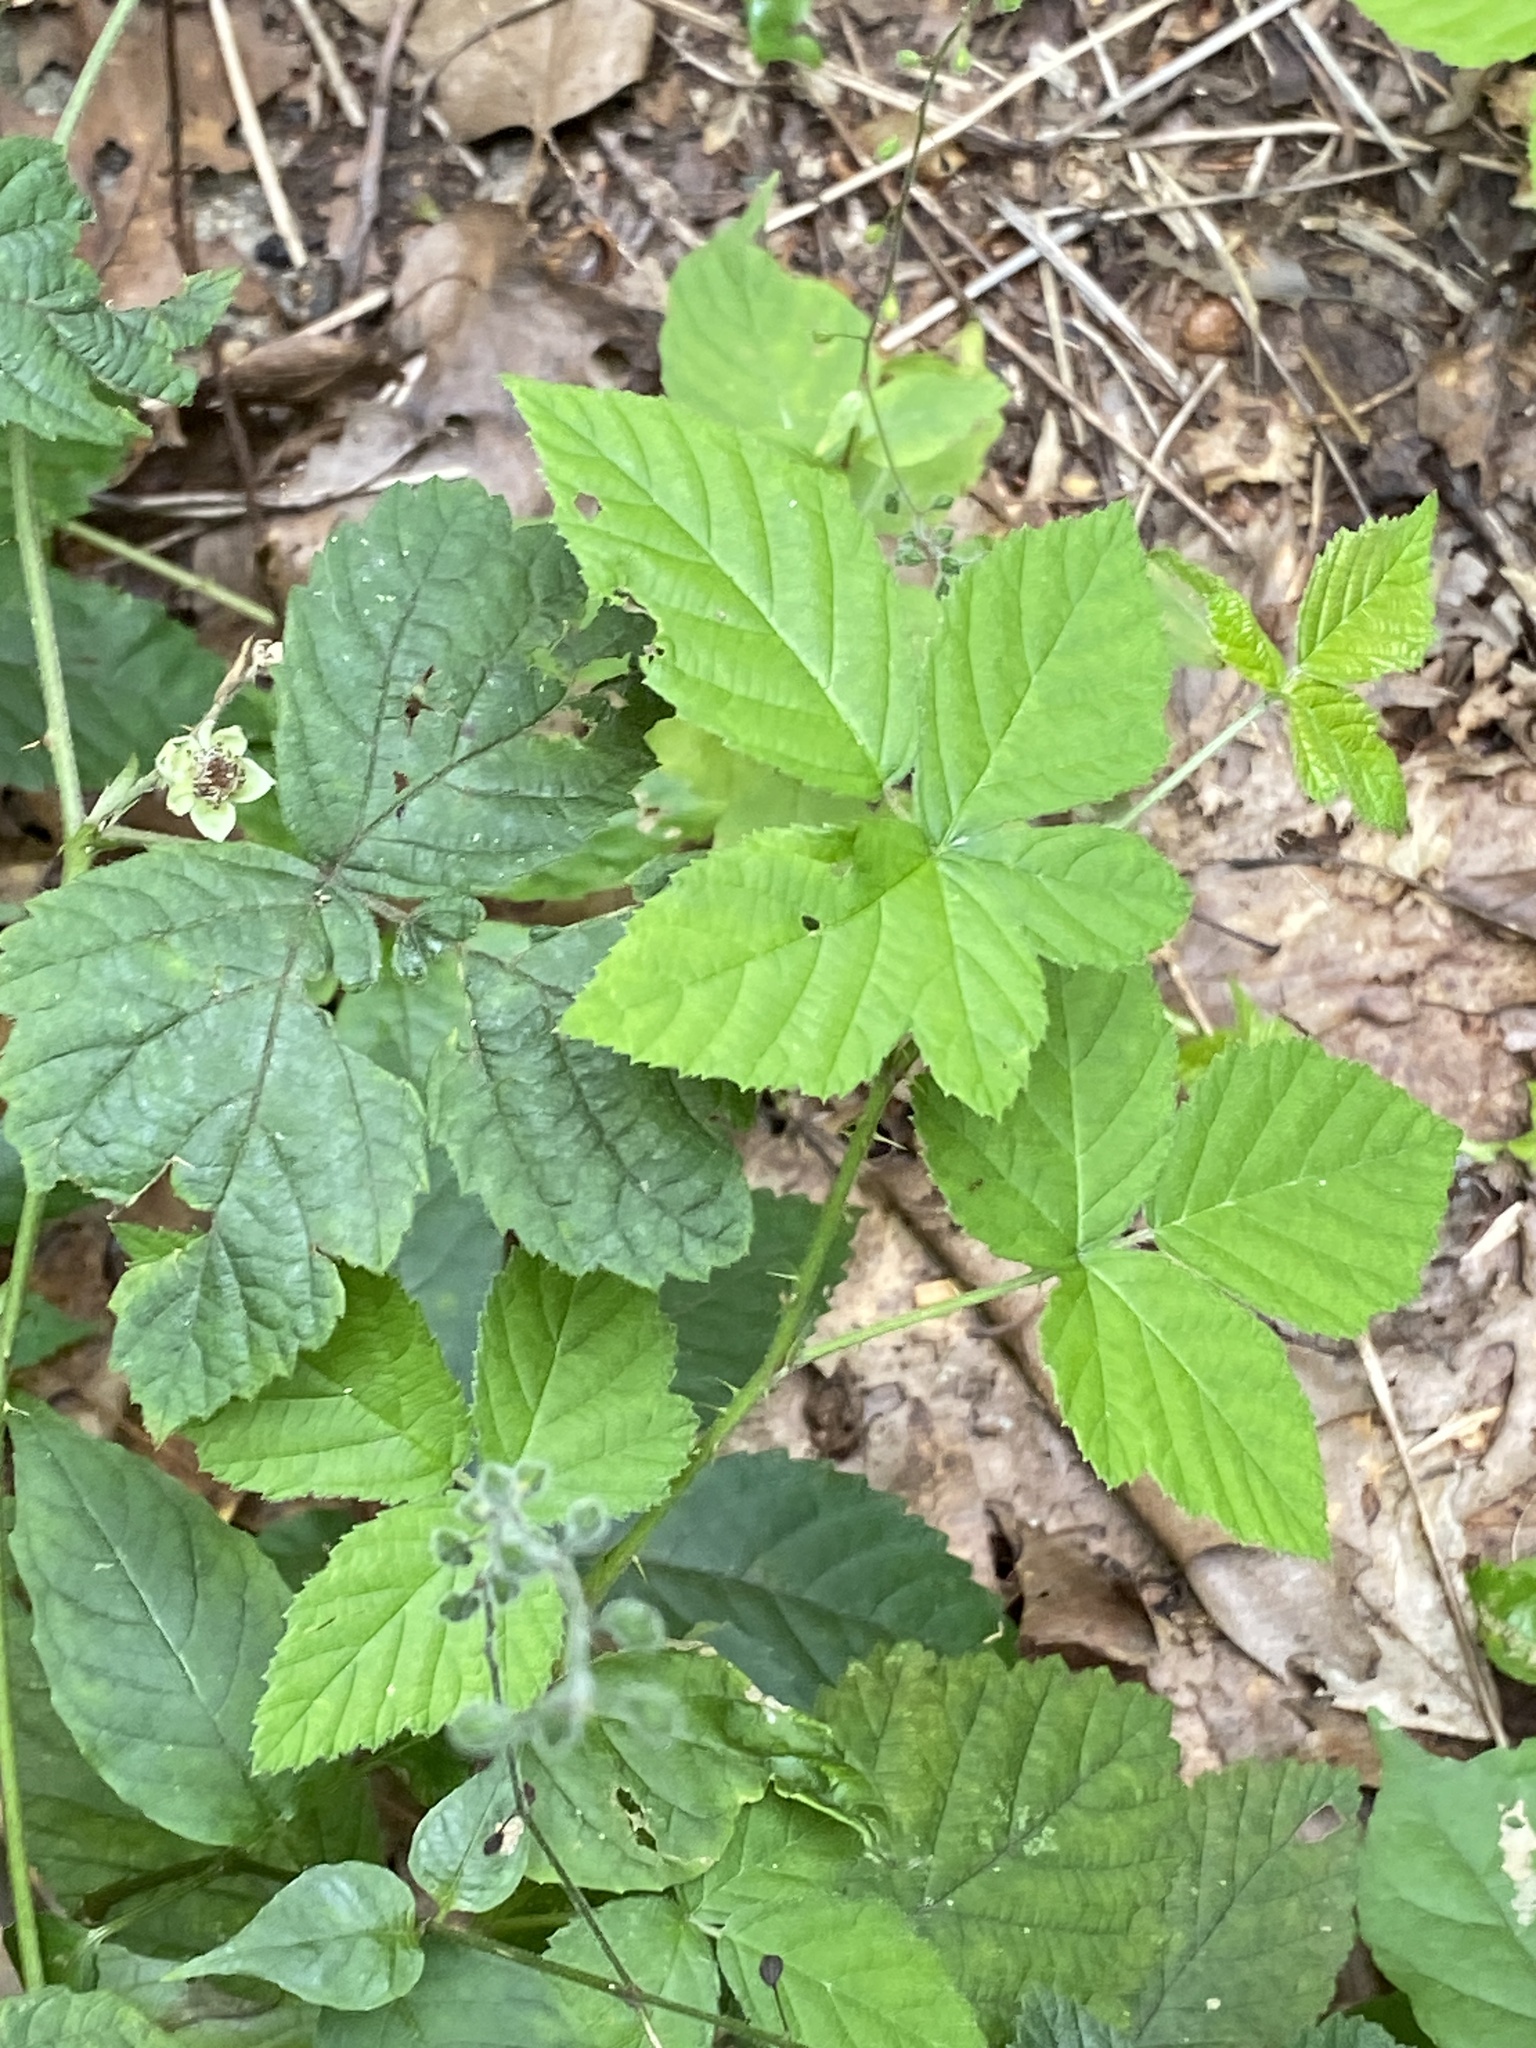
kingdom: Plantae
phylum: Tracheophyta
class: Magnoliopsida
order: Rosales
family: Rosaceae
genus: Rubus
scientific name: Rubus allegheniensis
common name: Allegheny blackberry
